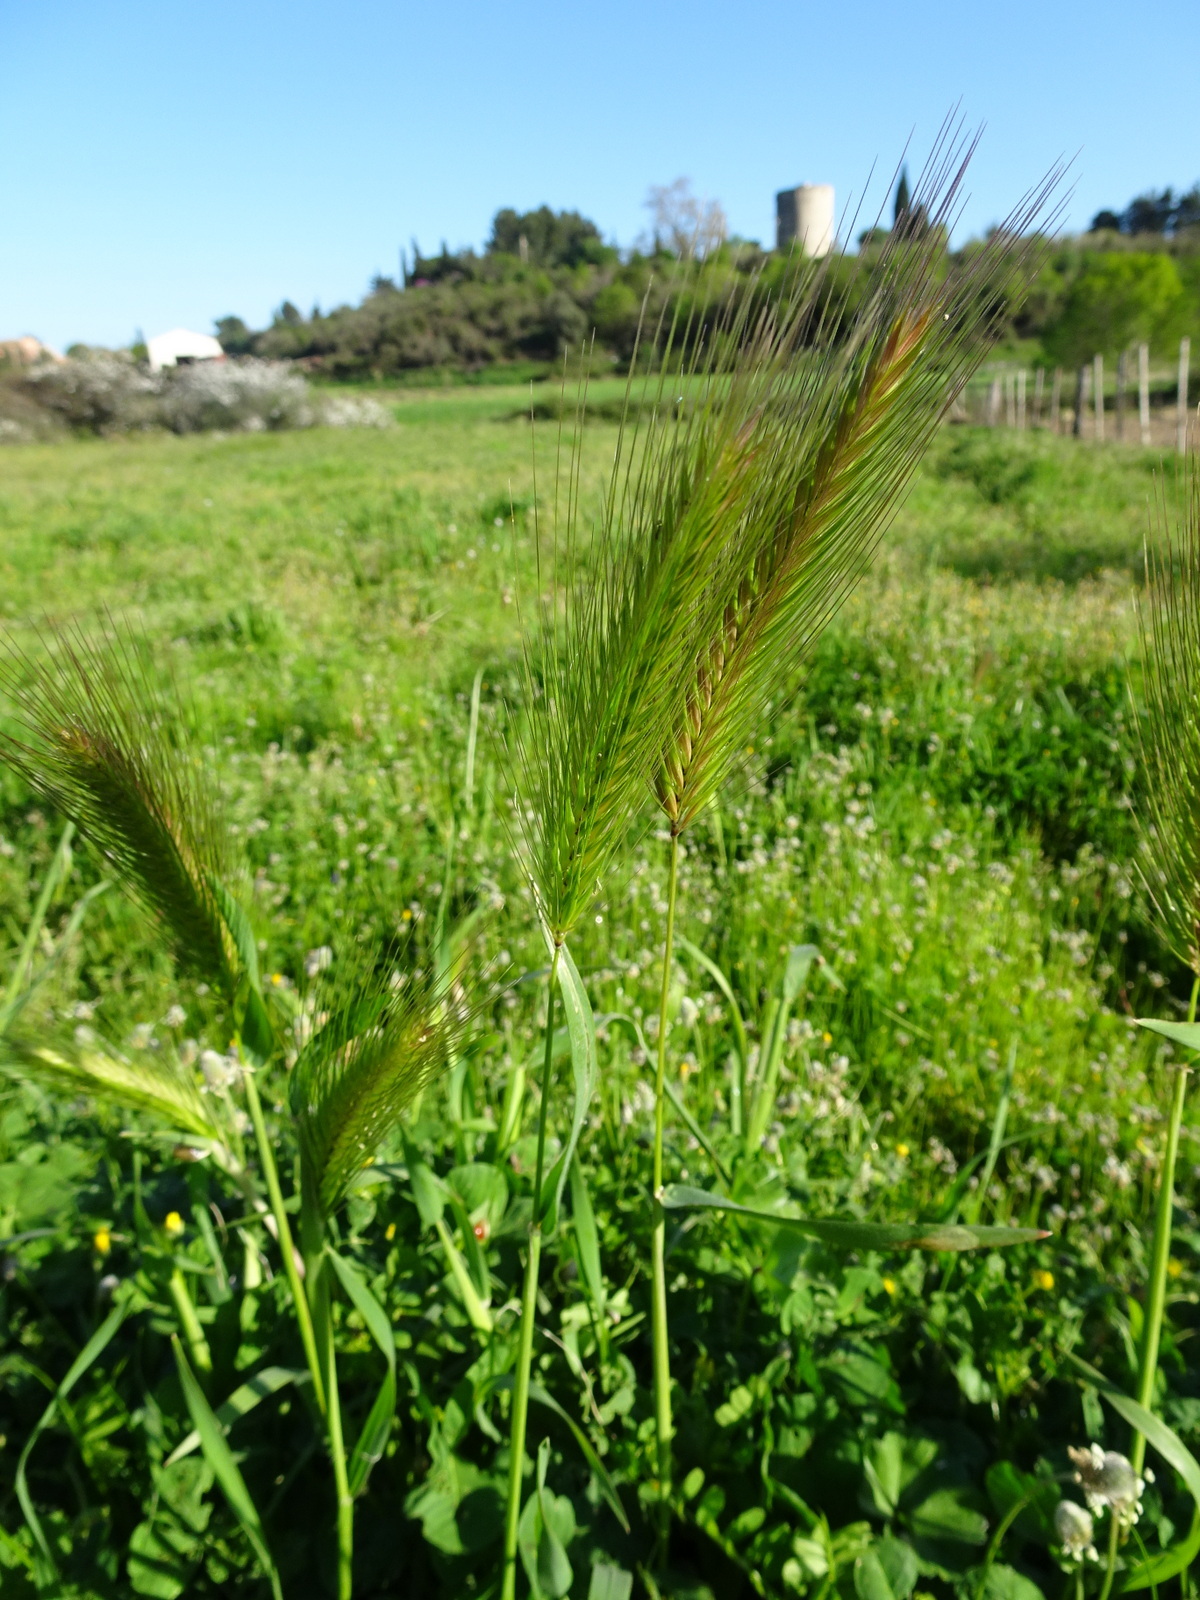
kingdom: Plantae
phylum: Tracheophyta
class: Liliopsida
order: Poales
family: Poaceae
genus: Hordeum
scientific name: Hordeum murinum
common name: Wall barley
